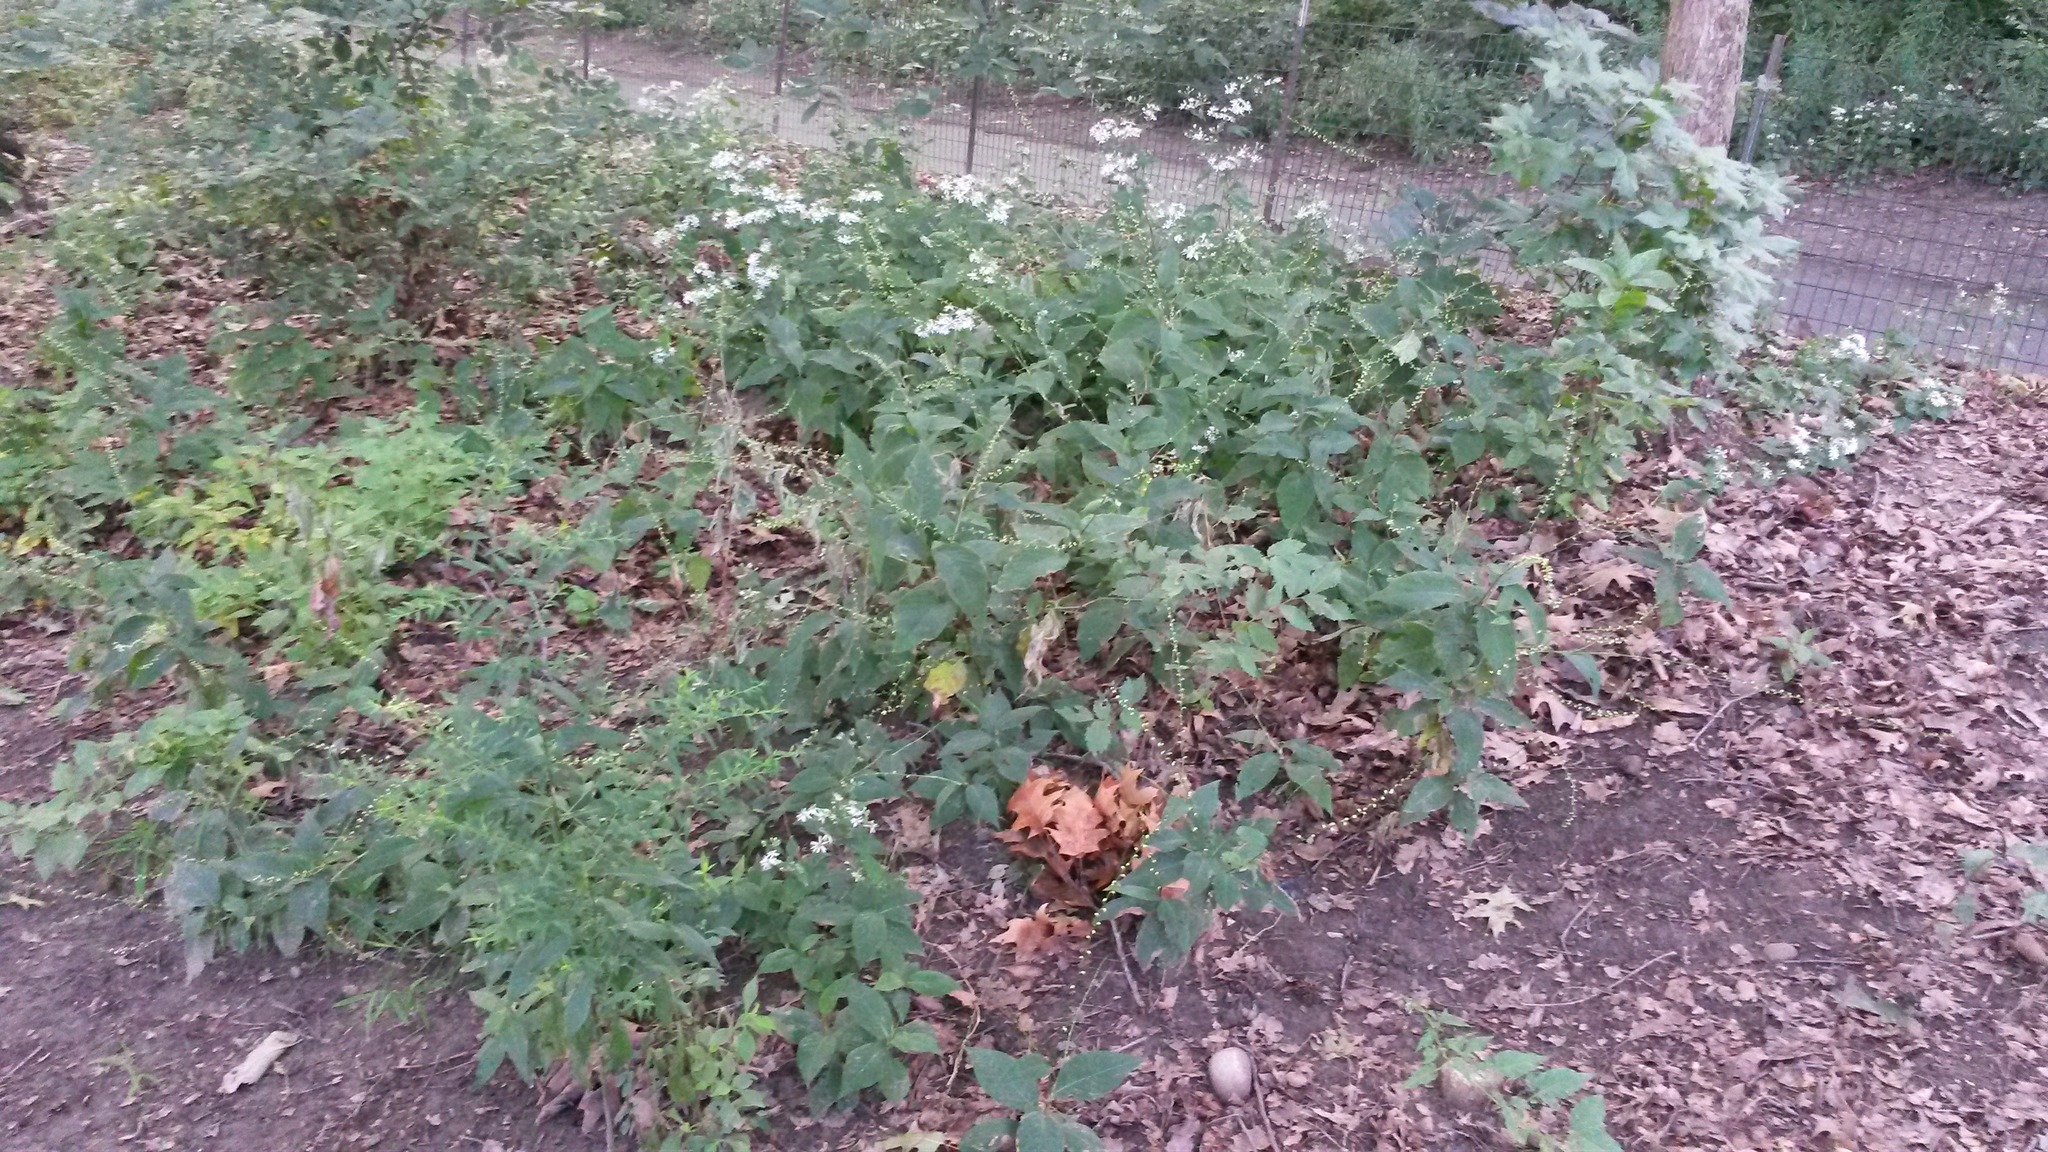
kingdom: Plantae
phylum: Tracheophyta
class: Magnoliopsida
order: Caryophyllales
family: Polygonaceae
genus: Persicaria
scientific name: Persicaria virginiana
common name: Jumpseed
